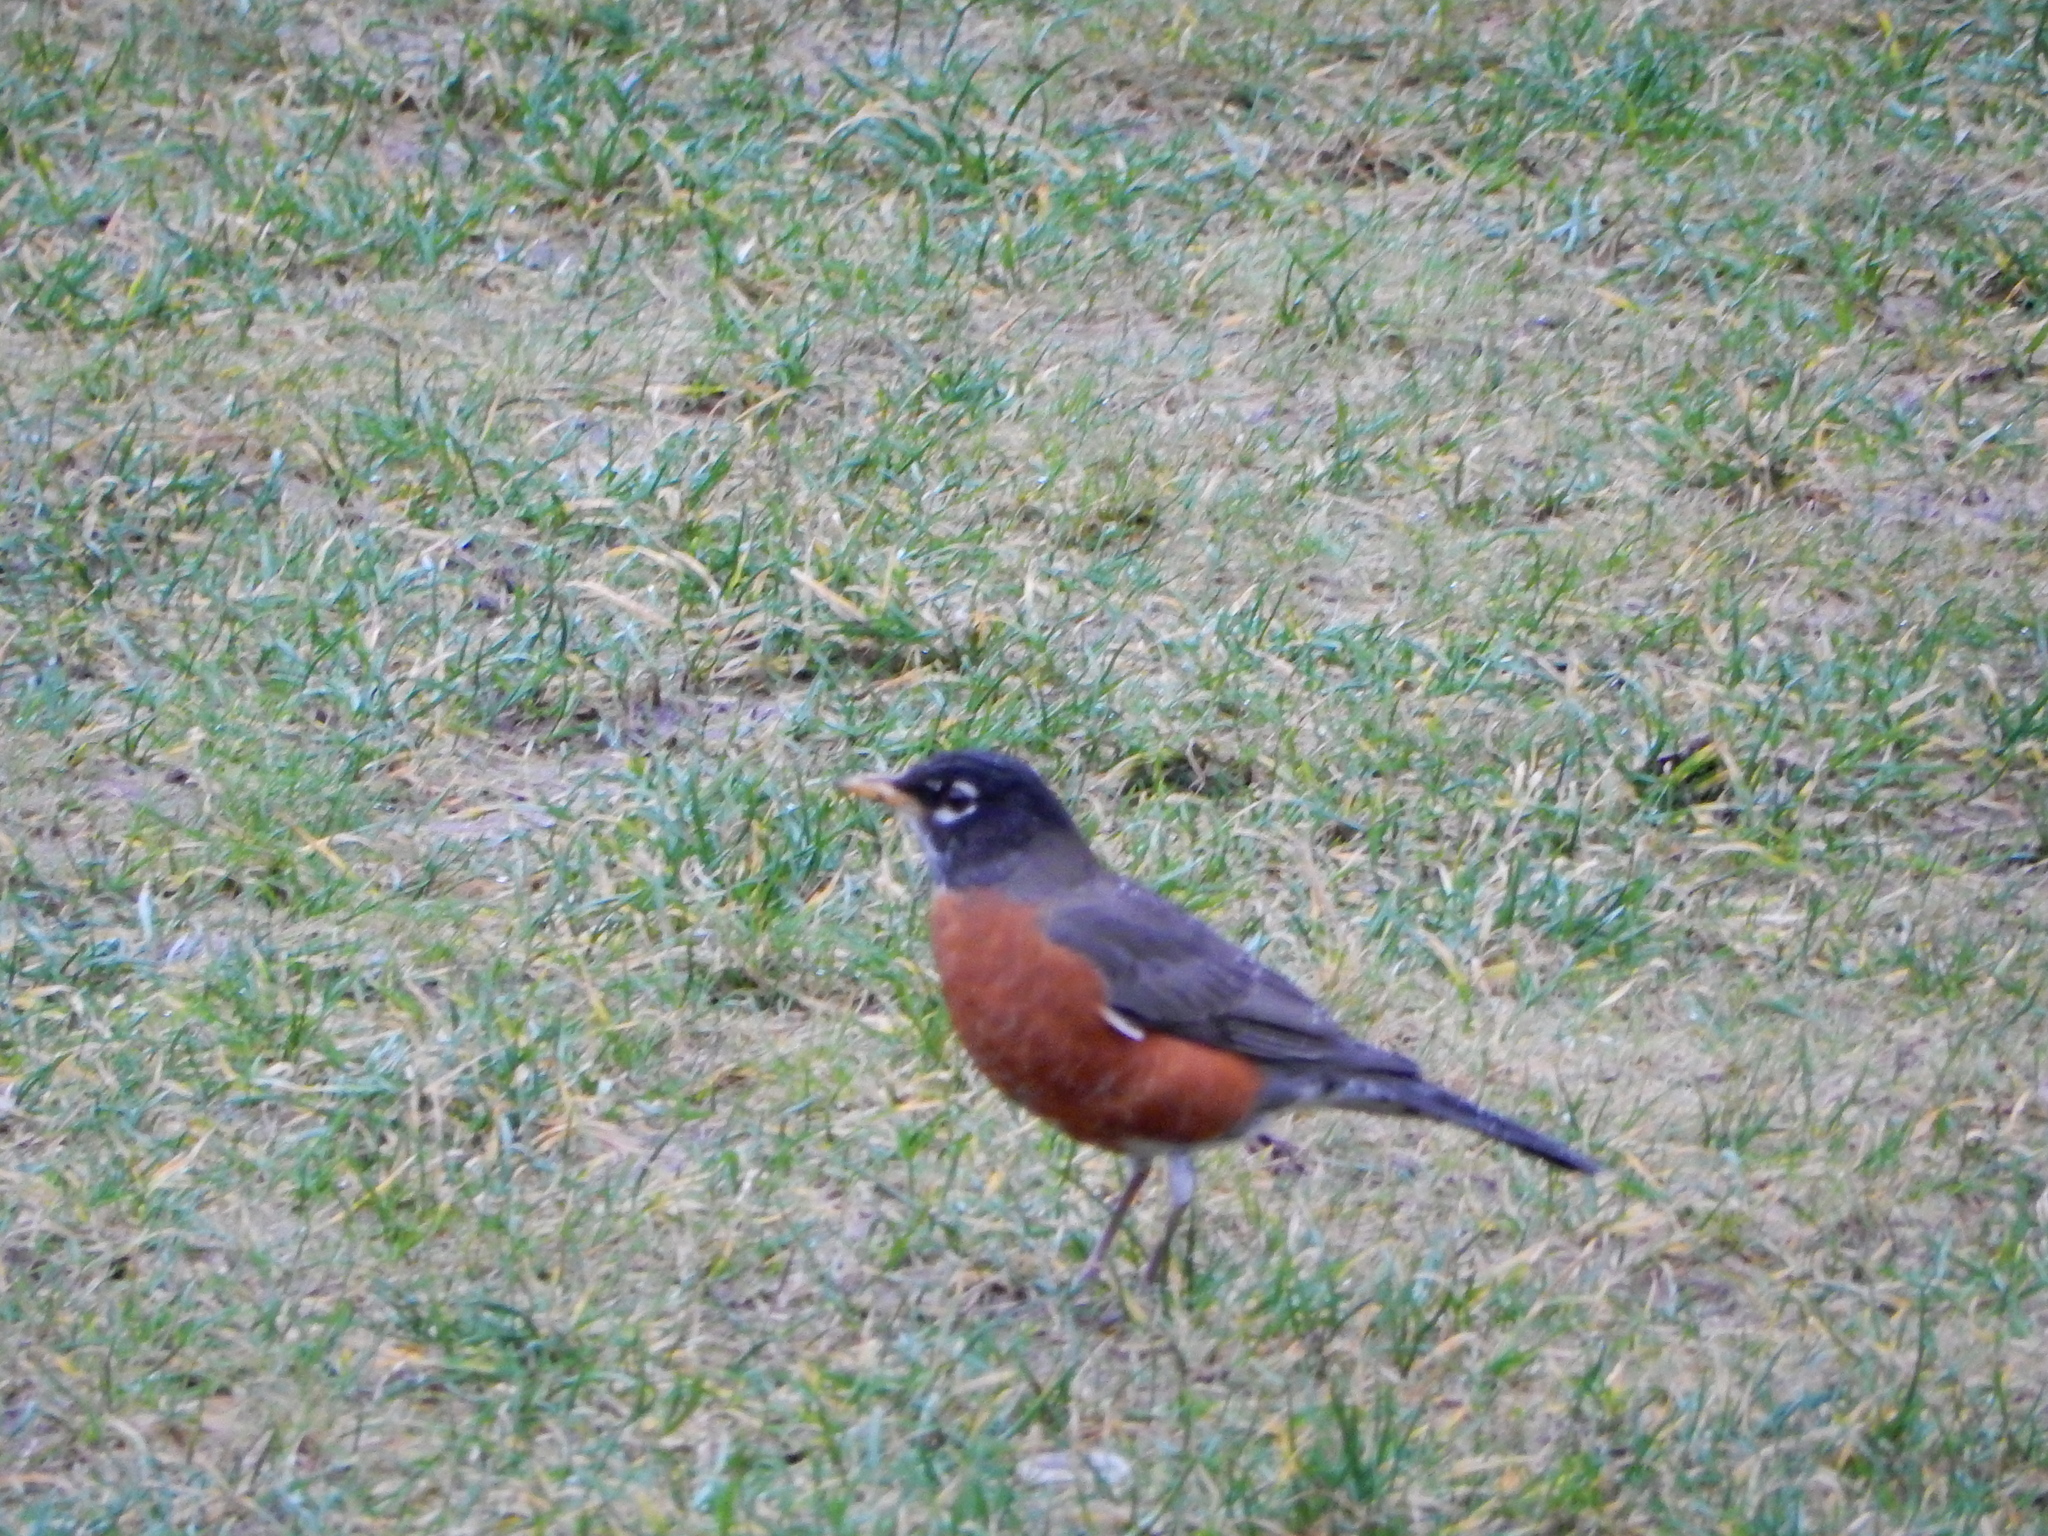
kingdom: Animalia
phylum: Chordata
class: Aves
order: Passeriformes
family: Turdidae
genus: Turdus
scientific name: Turdus migratorius
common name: American robin
